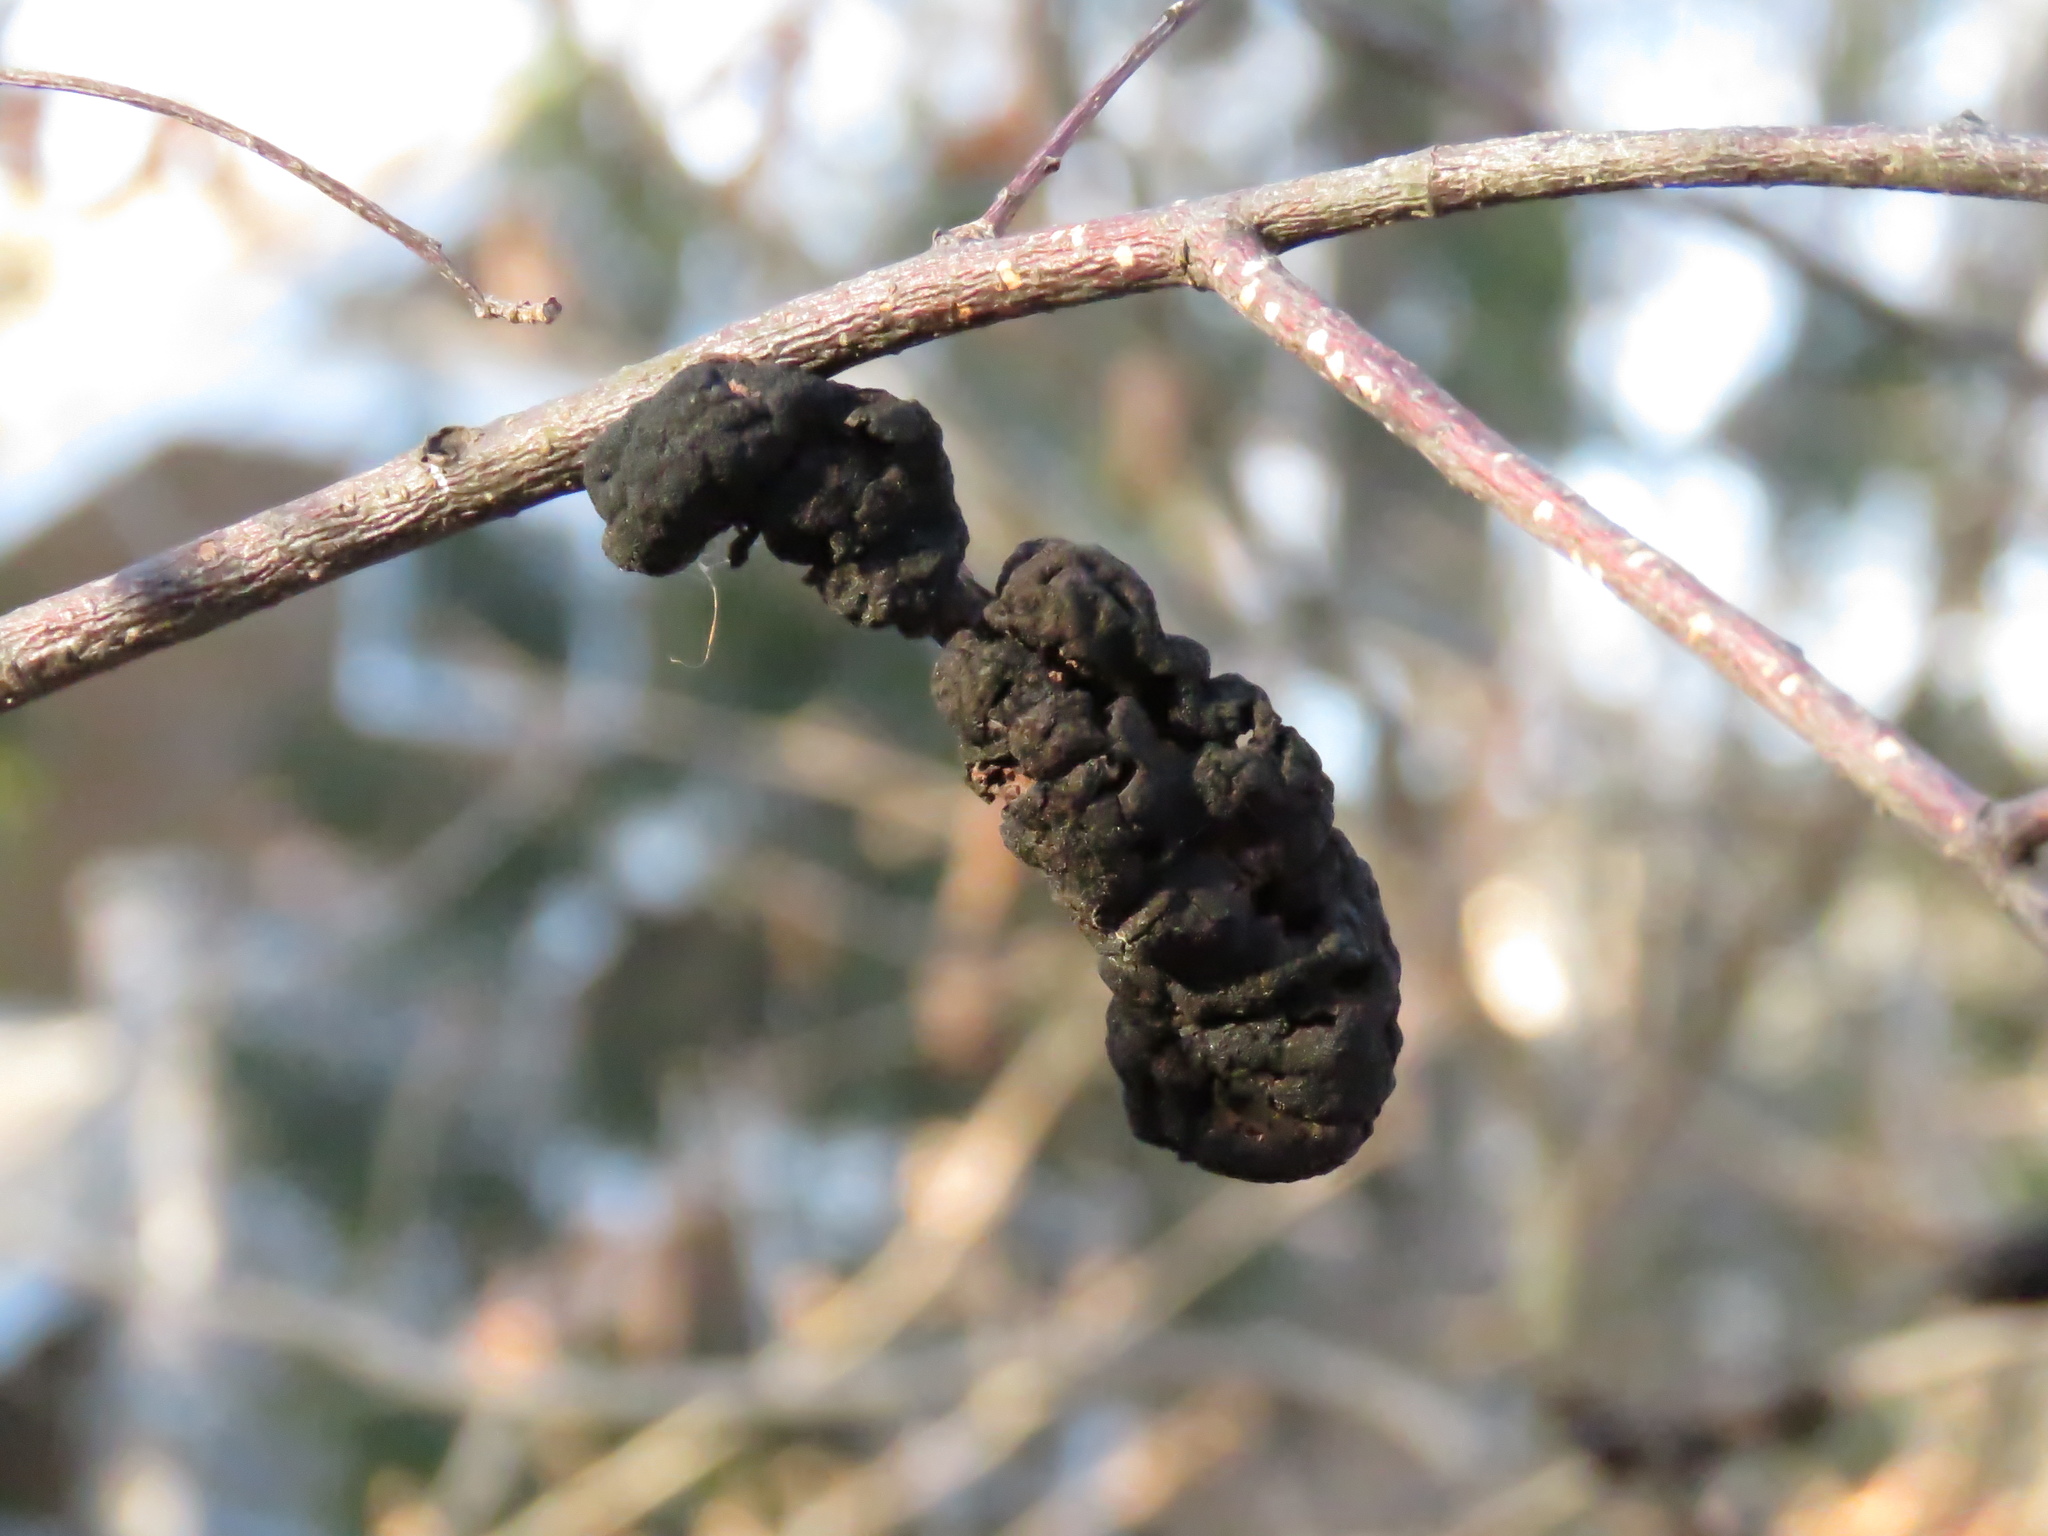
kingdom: Fungi
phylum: Ascomycota
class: Dothideomycetes
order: Venturiales
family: Venturiaceae
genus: Apiosporina
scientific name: Apiosporina morbosa
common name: Black knot
